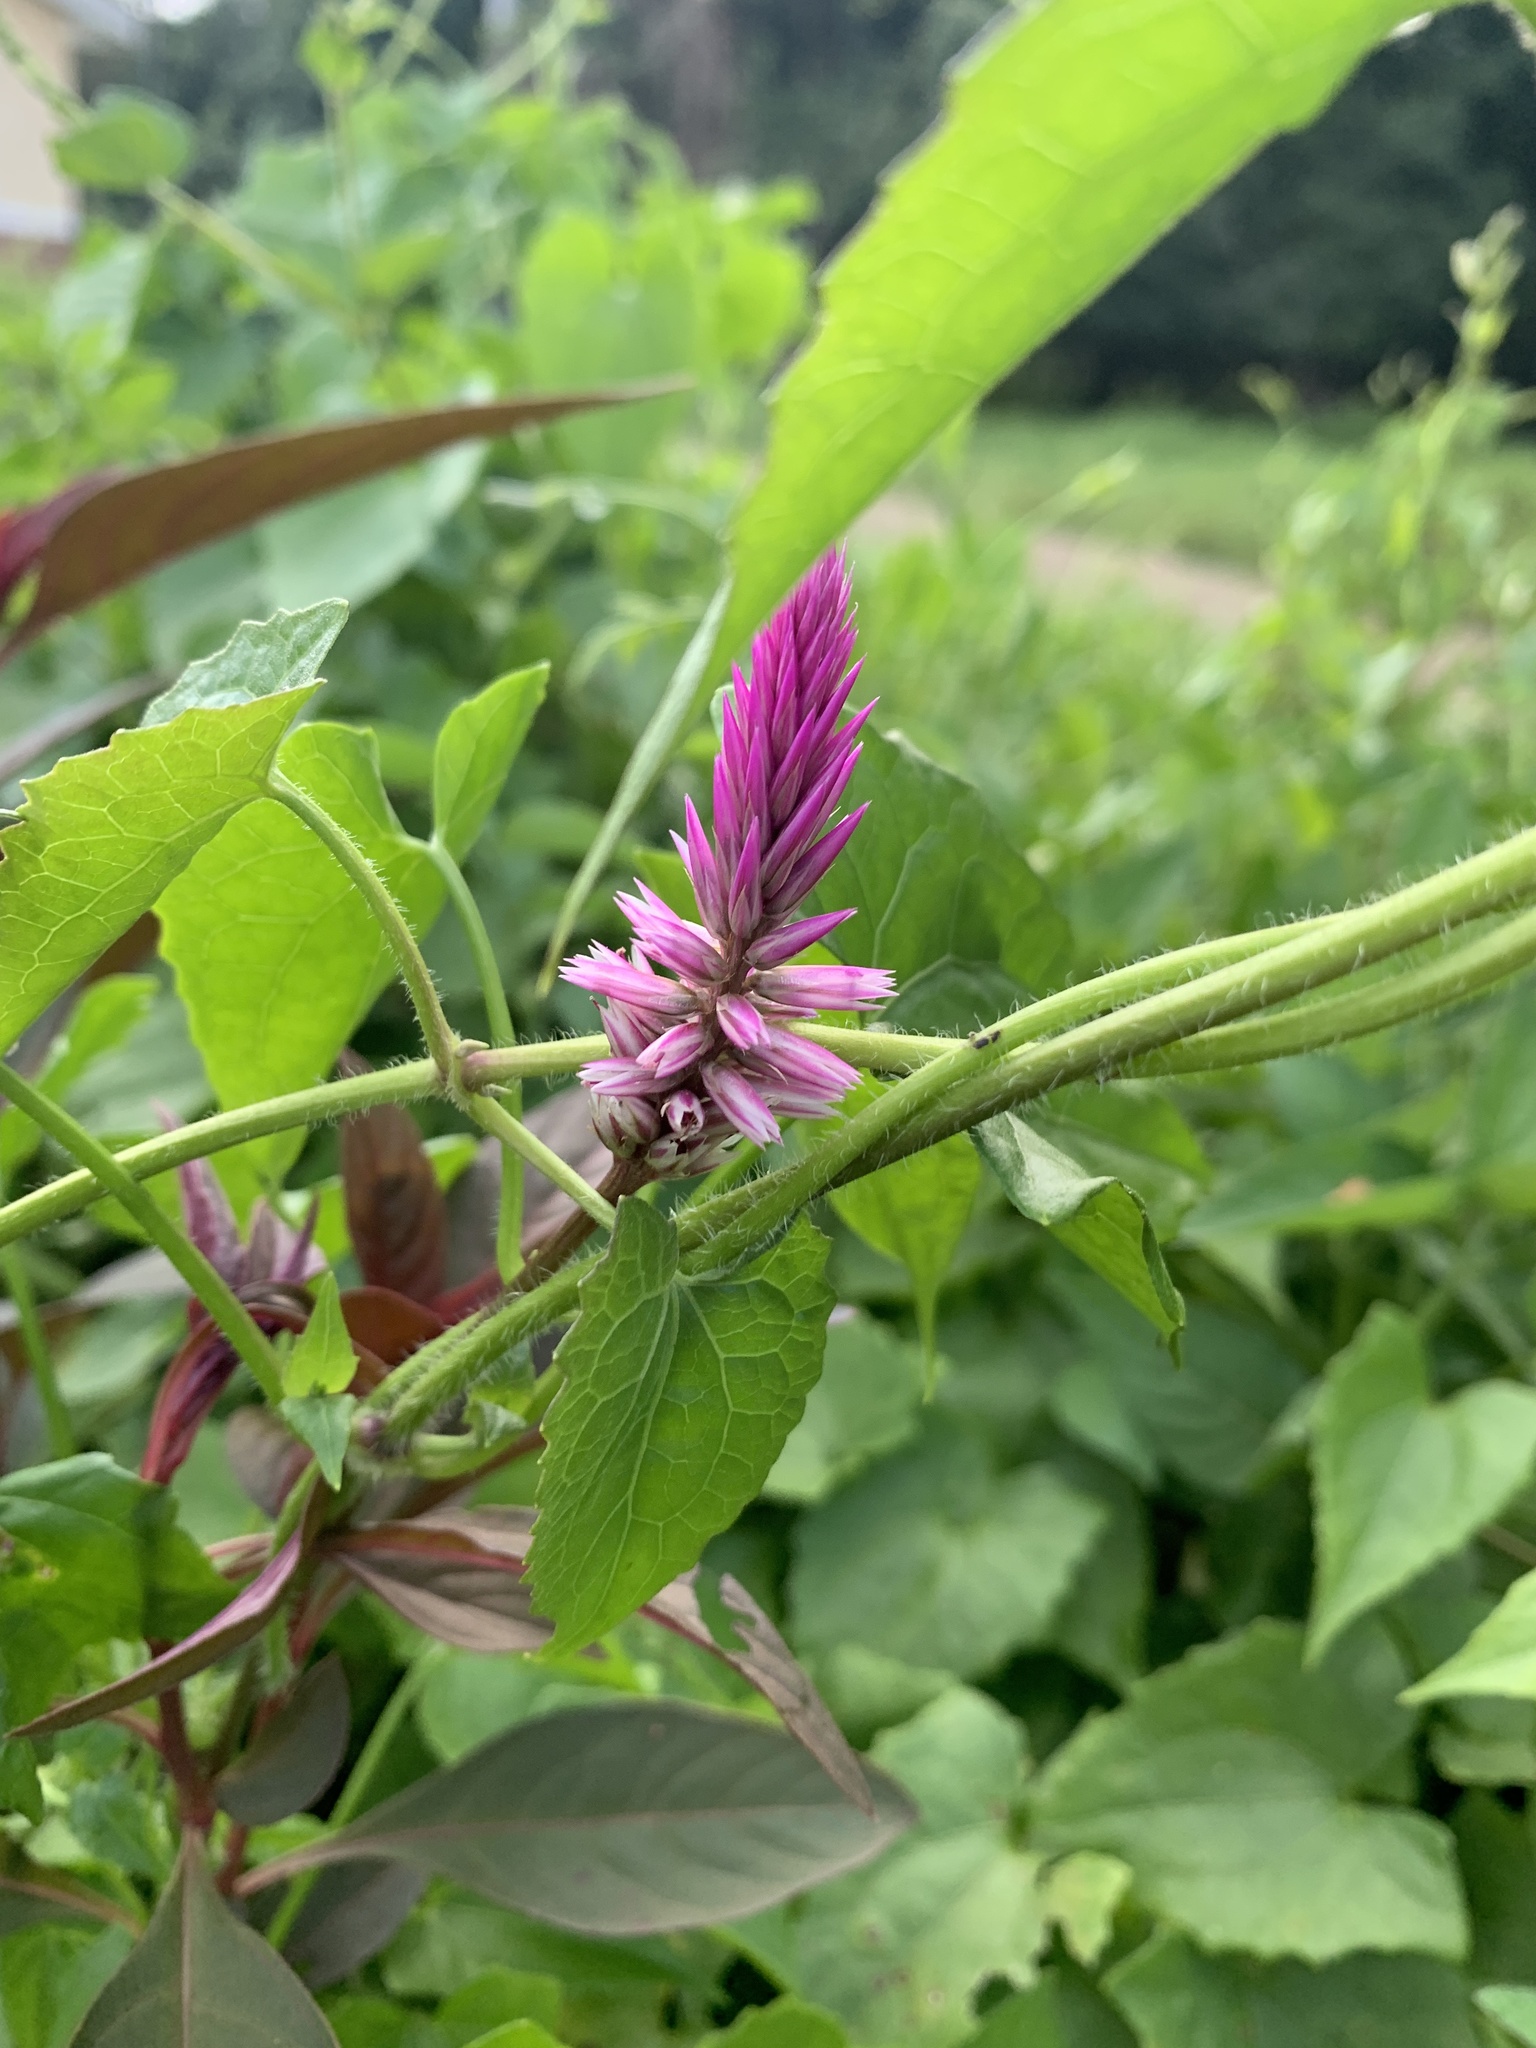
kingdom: Plantae
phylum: Tracheophyta
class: Magnoliopsida
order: Caryophyllales
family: Amaranthaceae
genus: Celosia
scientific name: Celosia argentea
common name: Feather cockscomb
